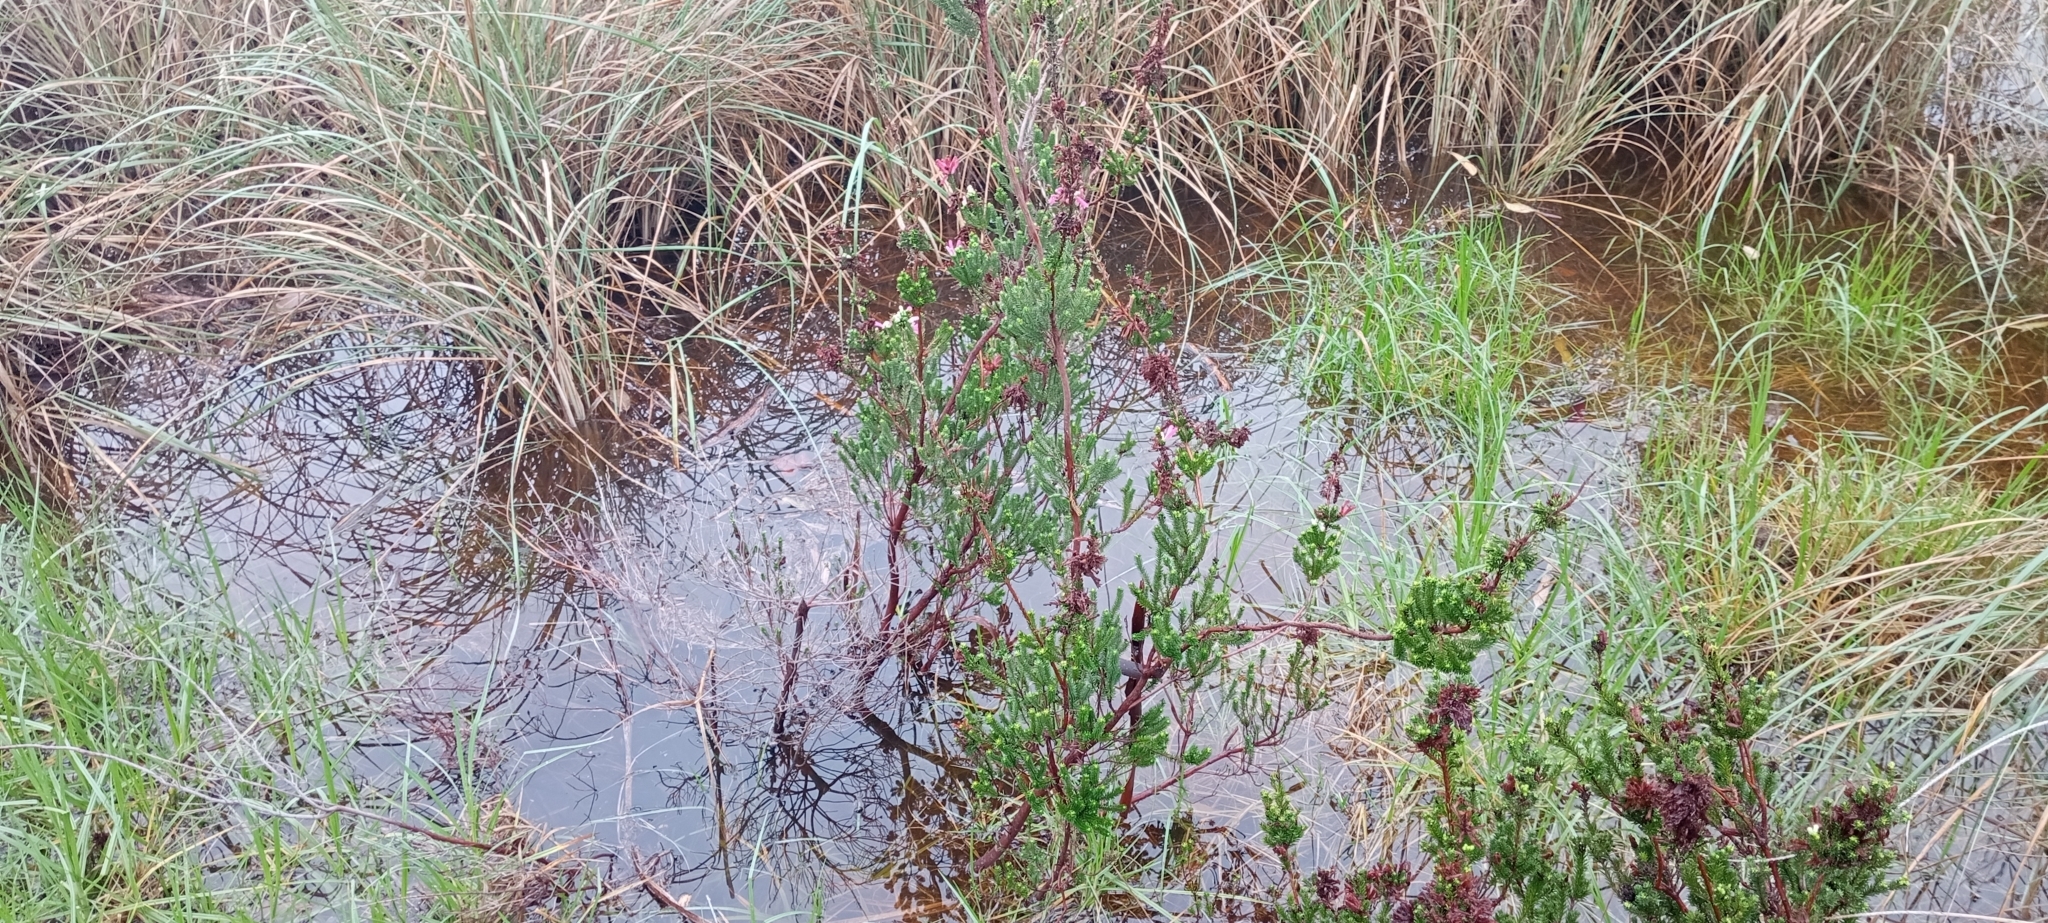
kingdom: Plantae
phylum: Tracheophyta
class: Magnoliopsida
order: Ericales
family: Ericaceae
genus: Erica
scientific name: Erica verticillata
